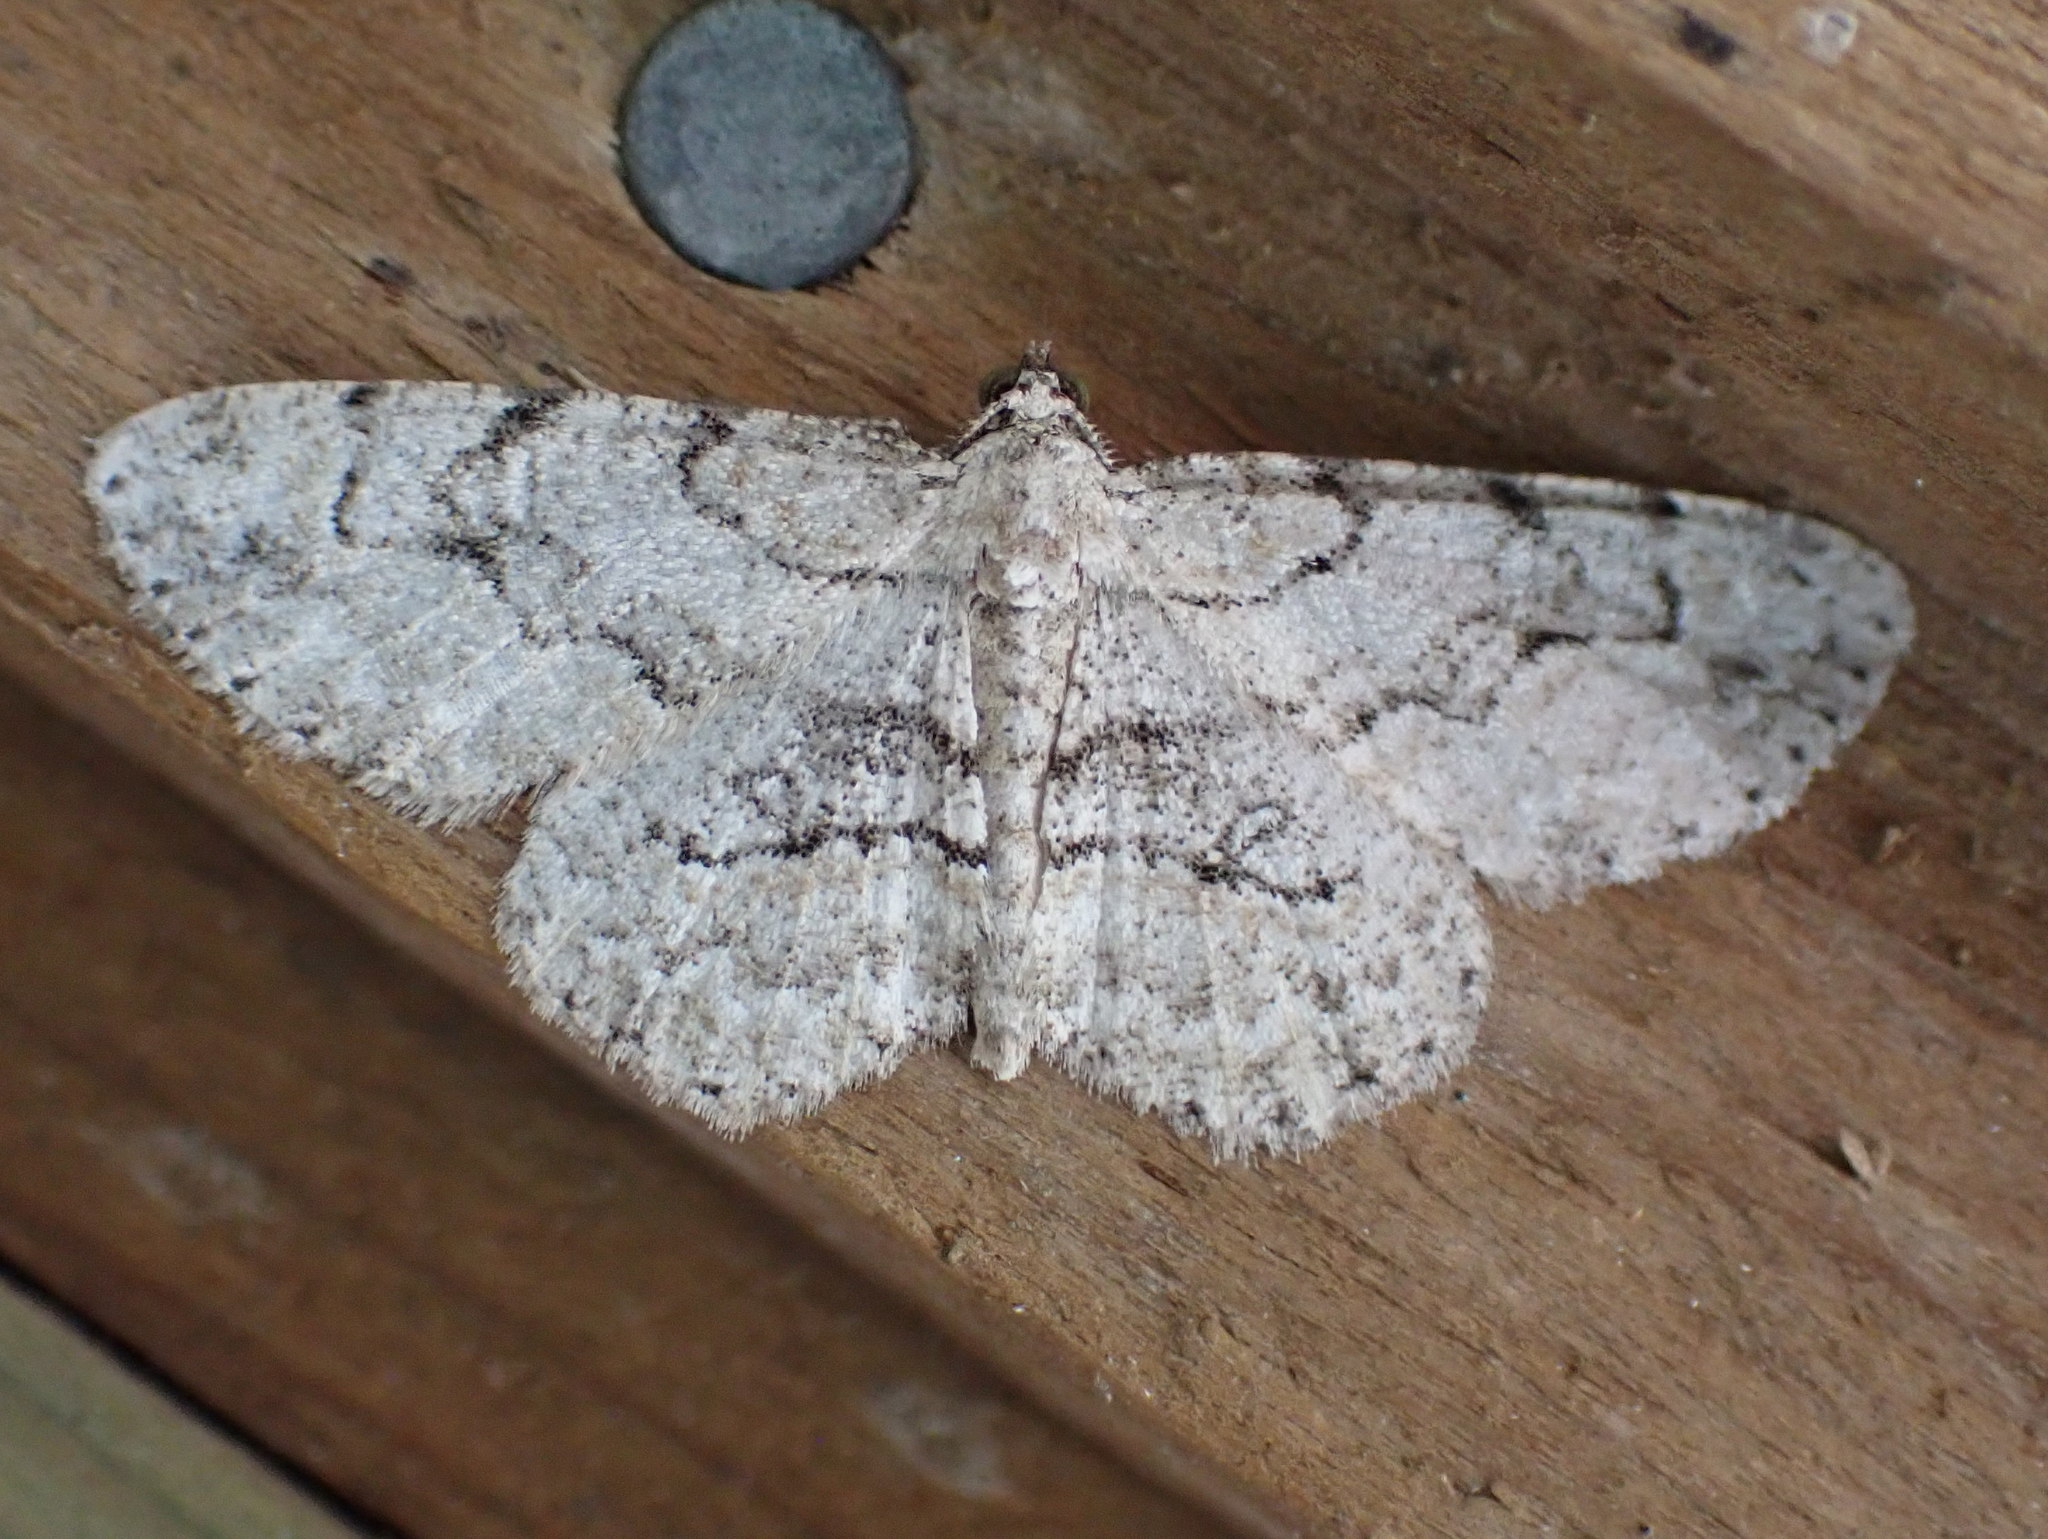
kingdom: Animalia
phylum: Arthropoda
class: Insecta
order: Lepidoptera
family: Geometridae
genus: Iridopsis
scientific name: Iridopsis ephyraria
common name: Pale-winged gray
